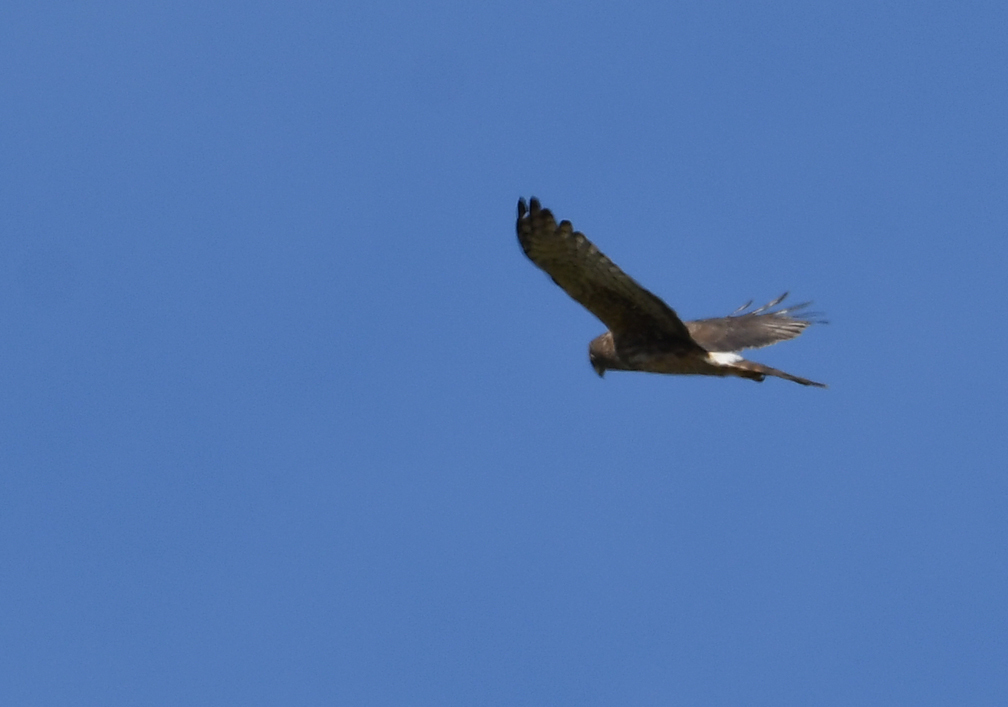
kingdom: Animalia
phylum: Chordata
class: Aves
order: Accipitriformes
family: Accipitridae
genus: Circus
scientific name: Circus cyaneus
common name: Hen harrier
